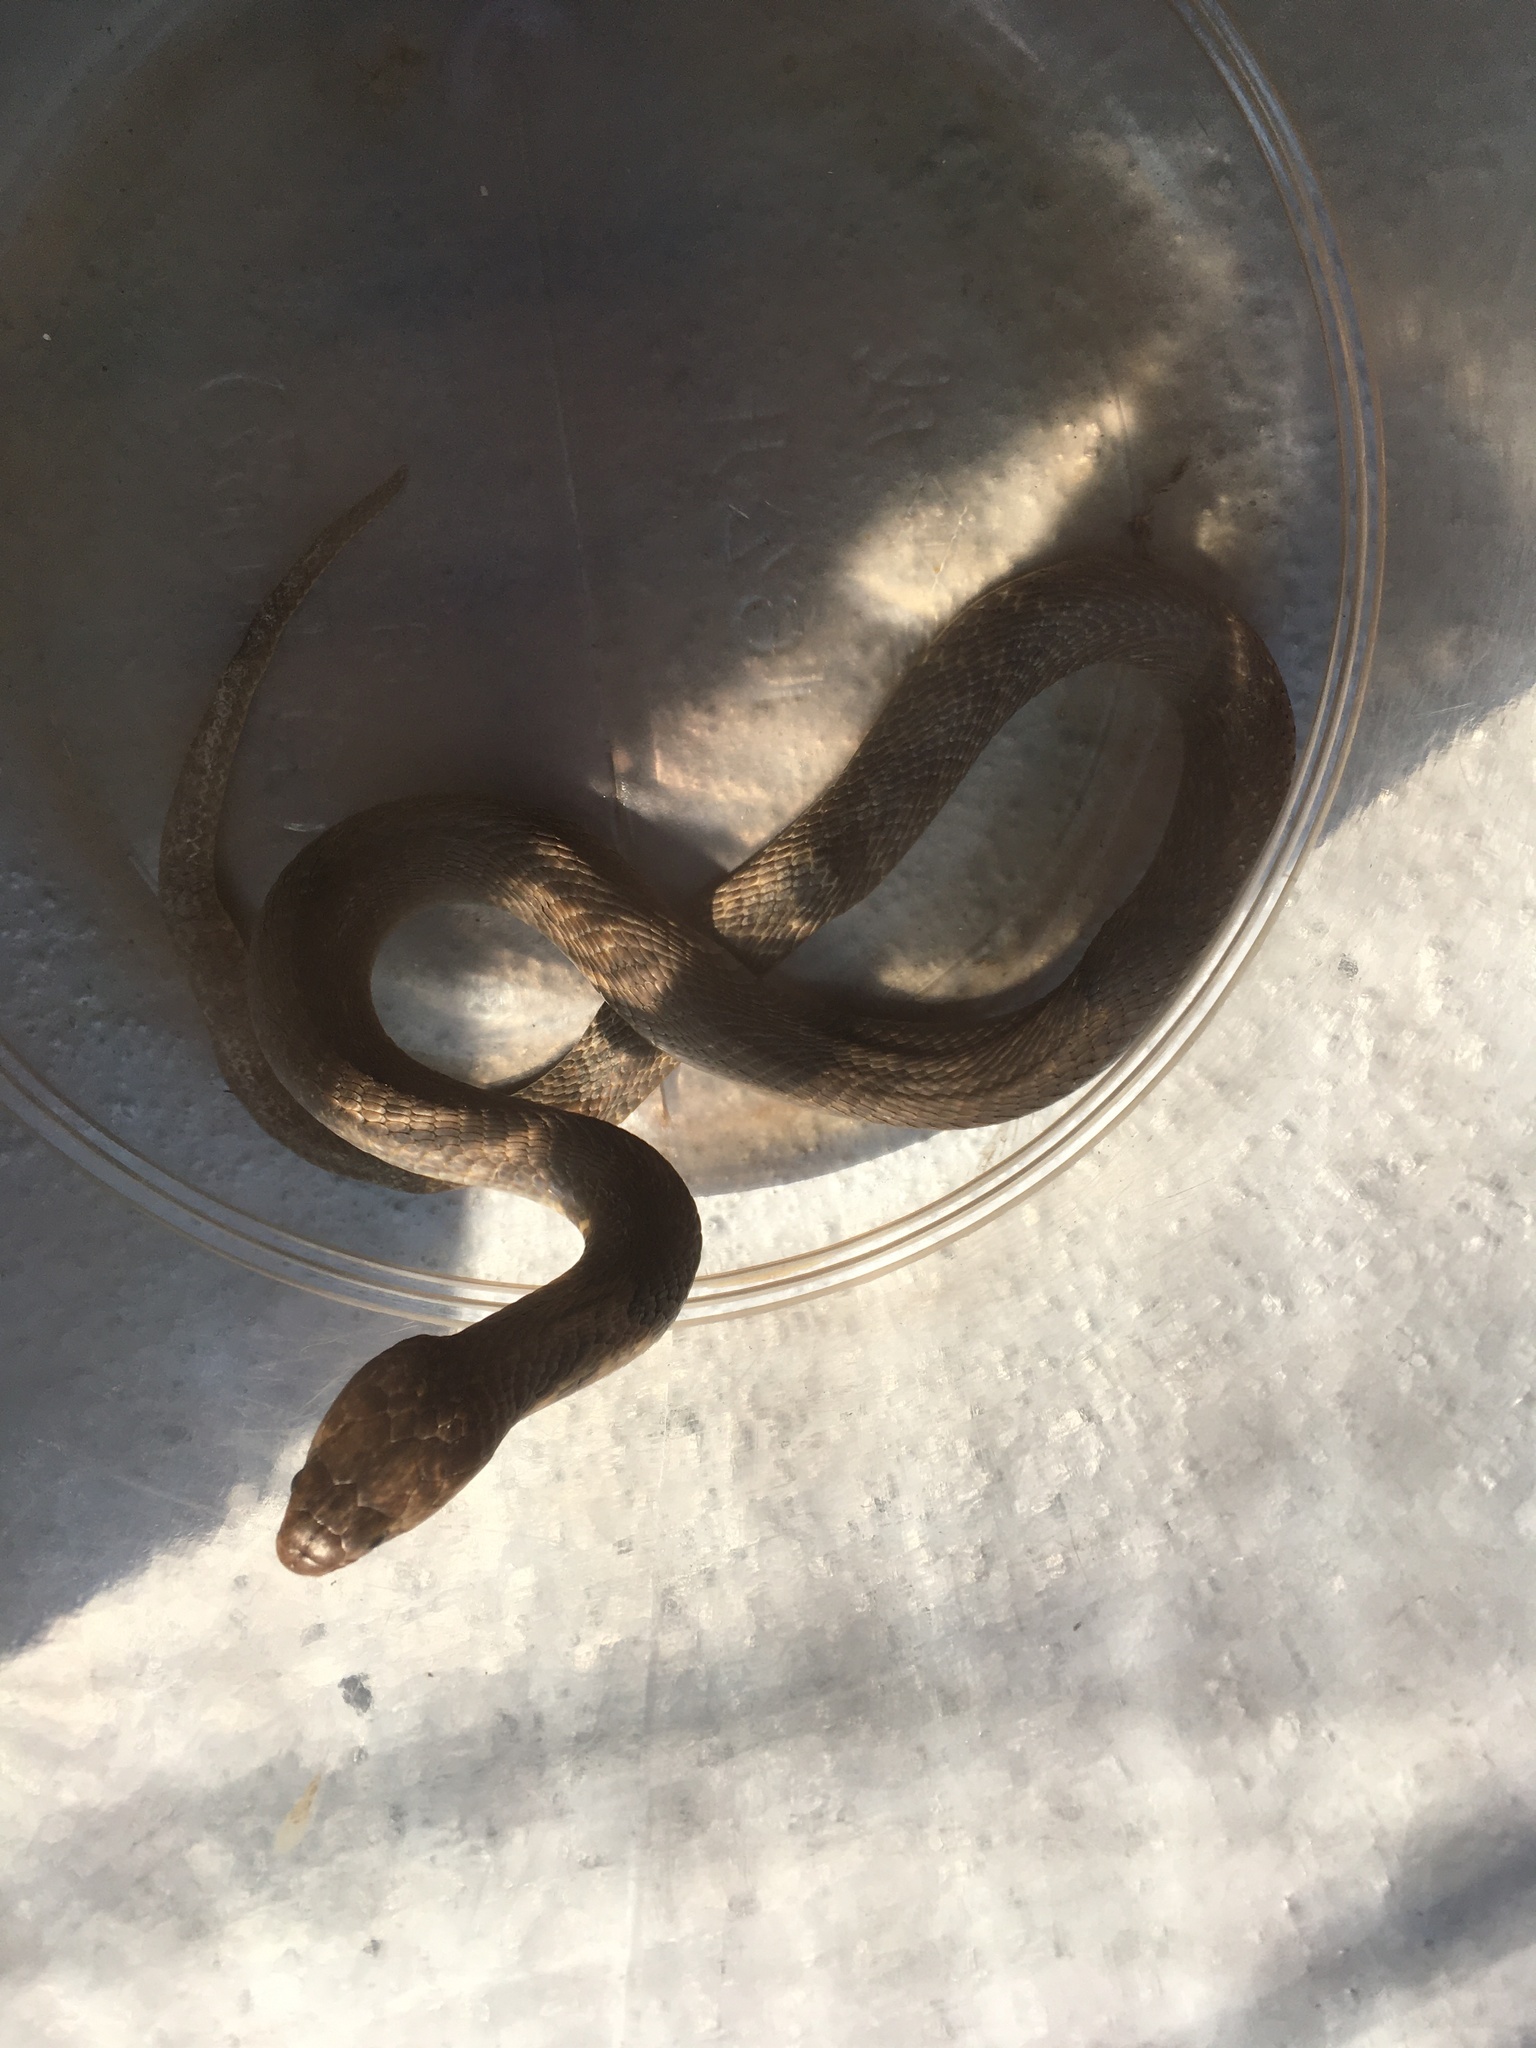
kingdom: Animalia
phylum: Chordata
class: Squamata
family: Elapidae
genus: Naja
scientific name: Naja atra
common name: Chinese cobra
